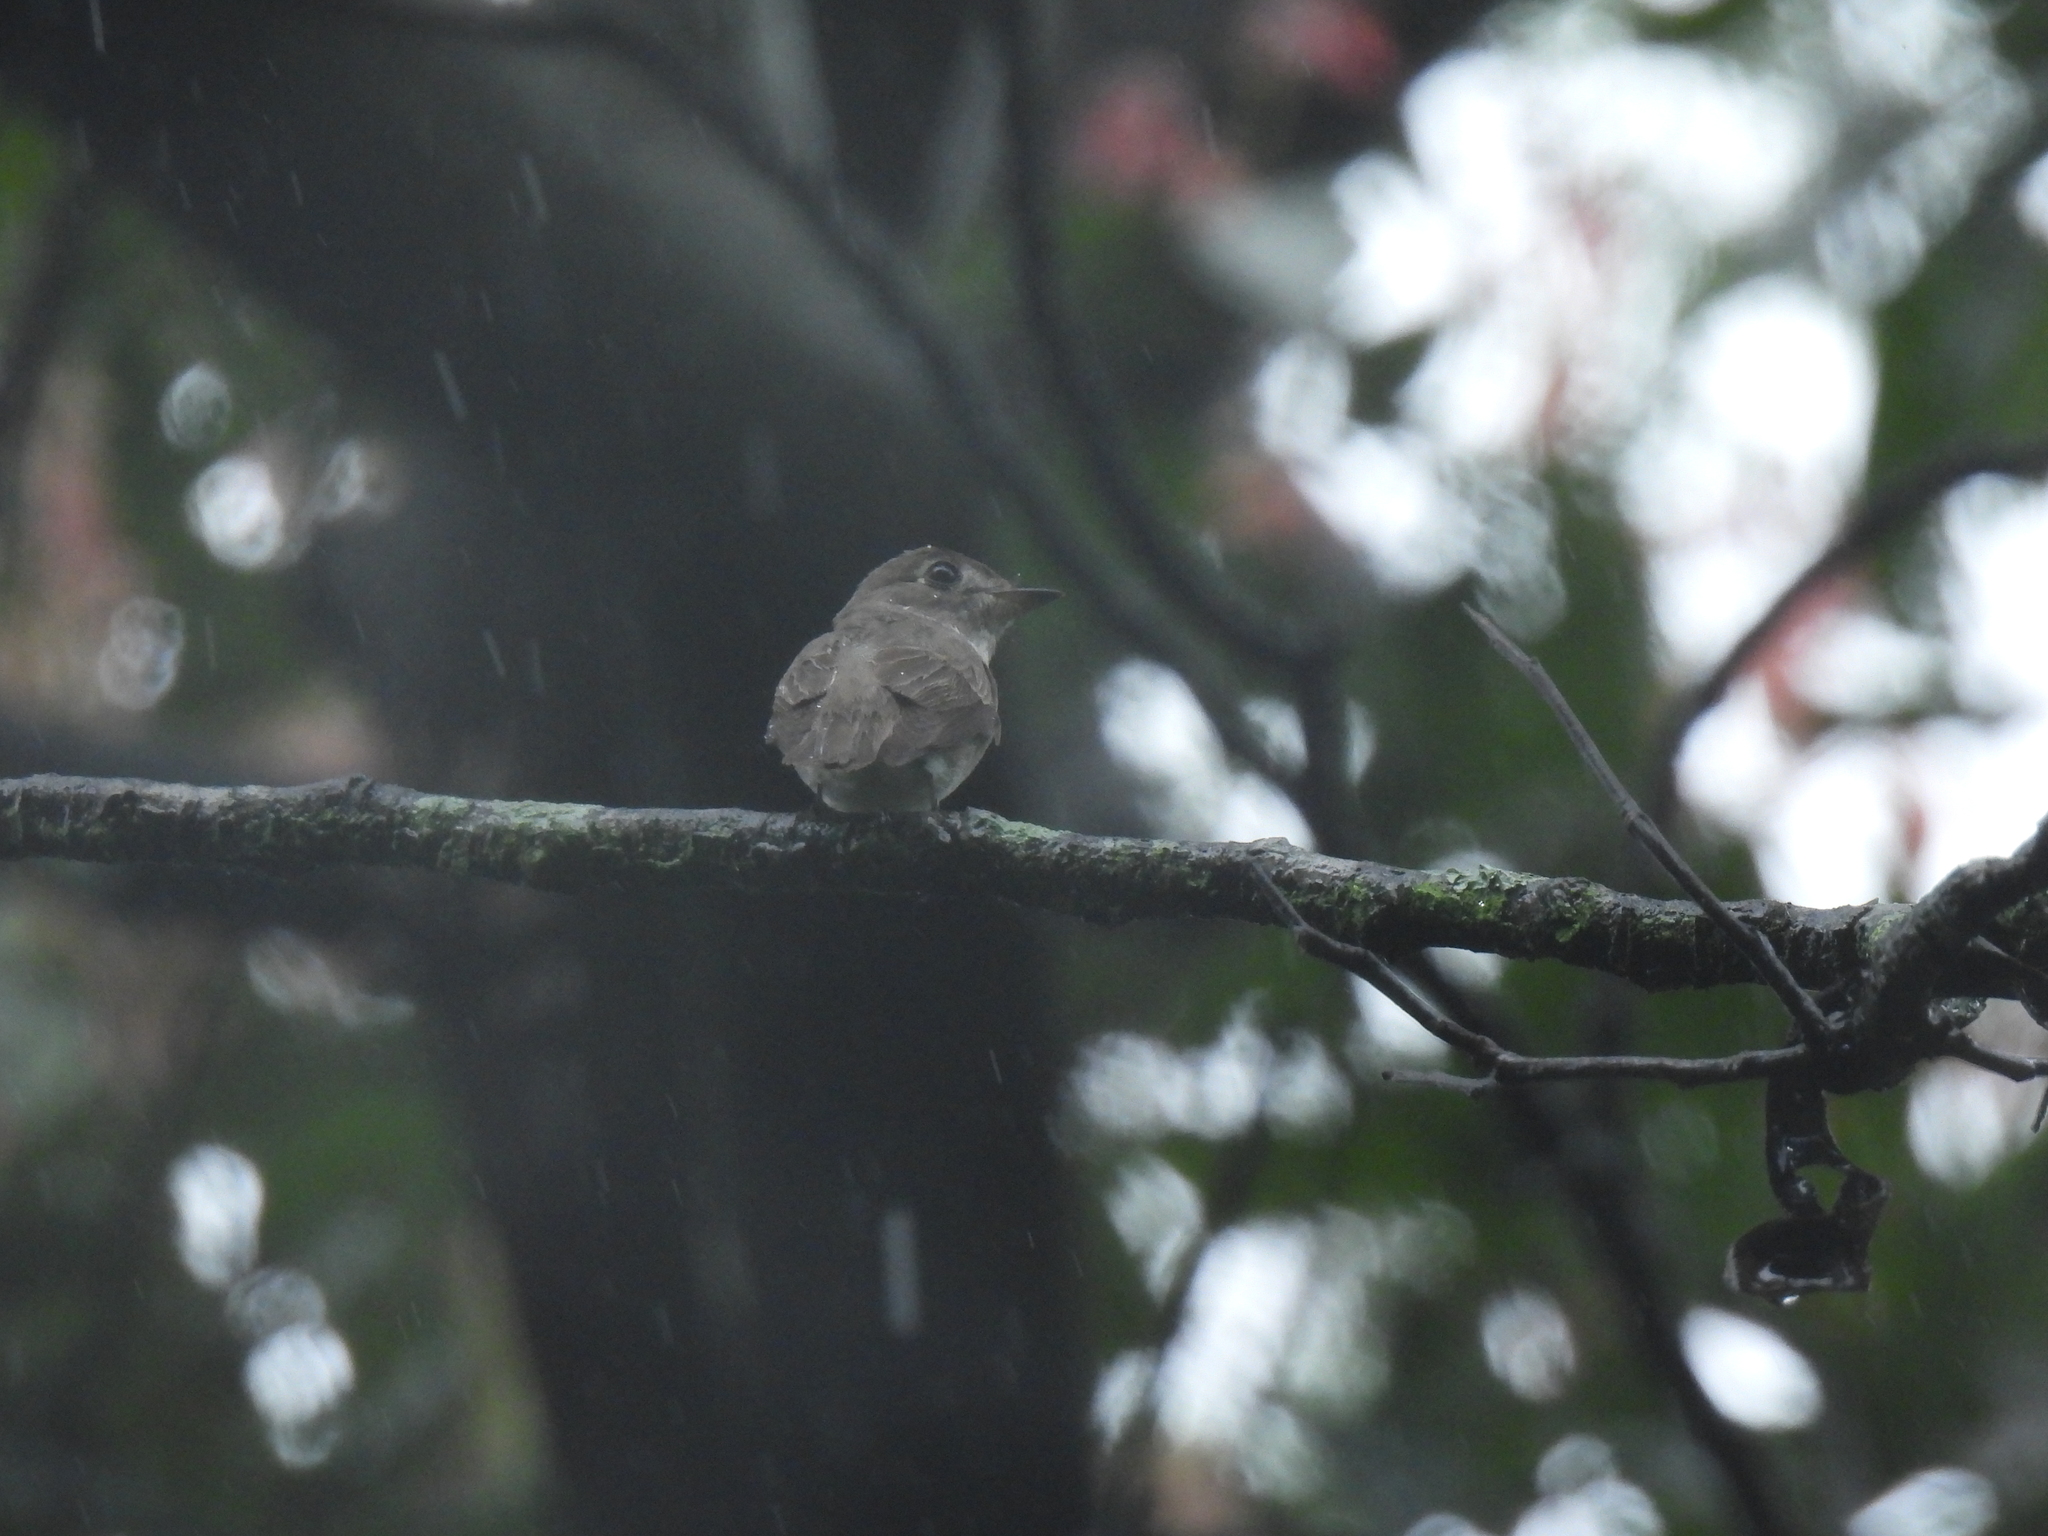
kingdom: Animalia
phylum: Chordata
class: Aves
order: Passeriformes
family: Muscicapidae
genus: Muscicapa
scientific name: Muscicapa latirostris
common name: Asian brown flycatcher
